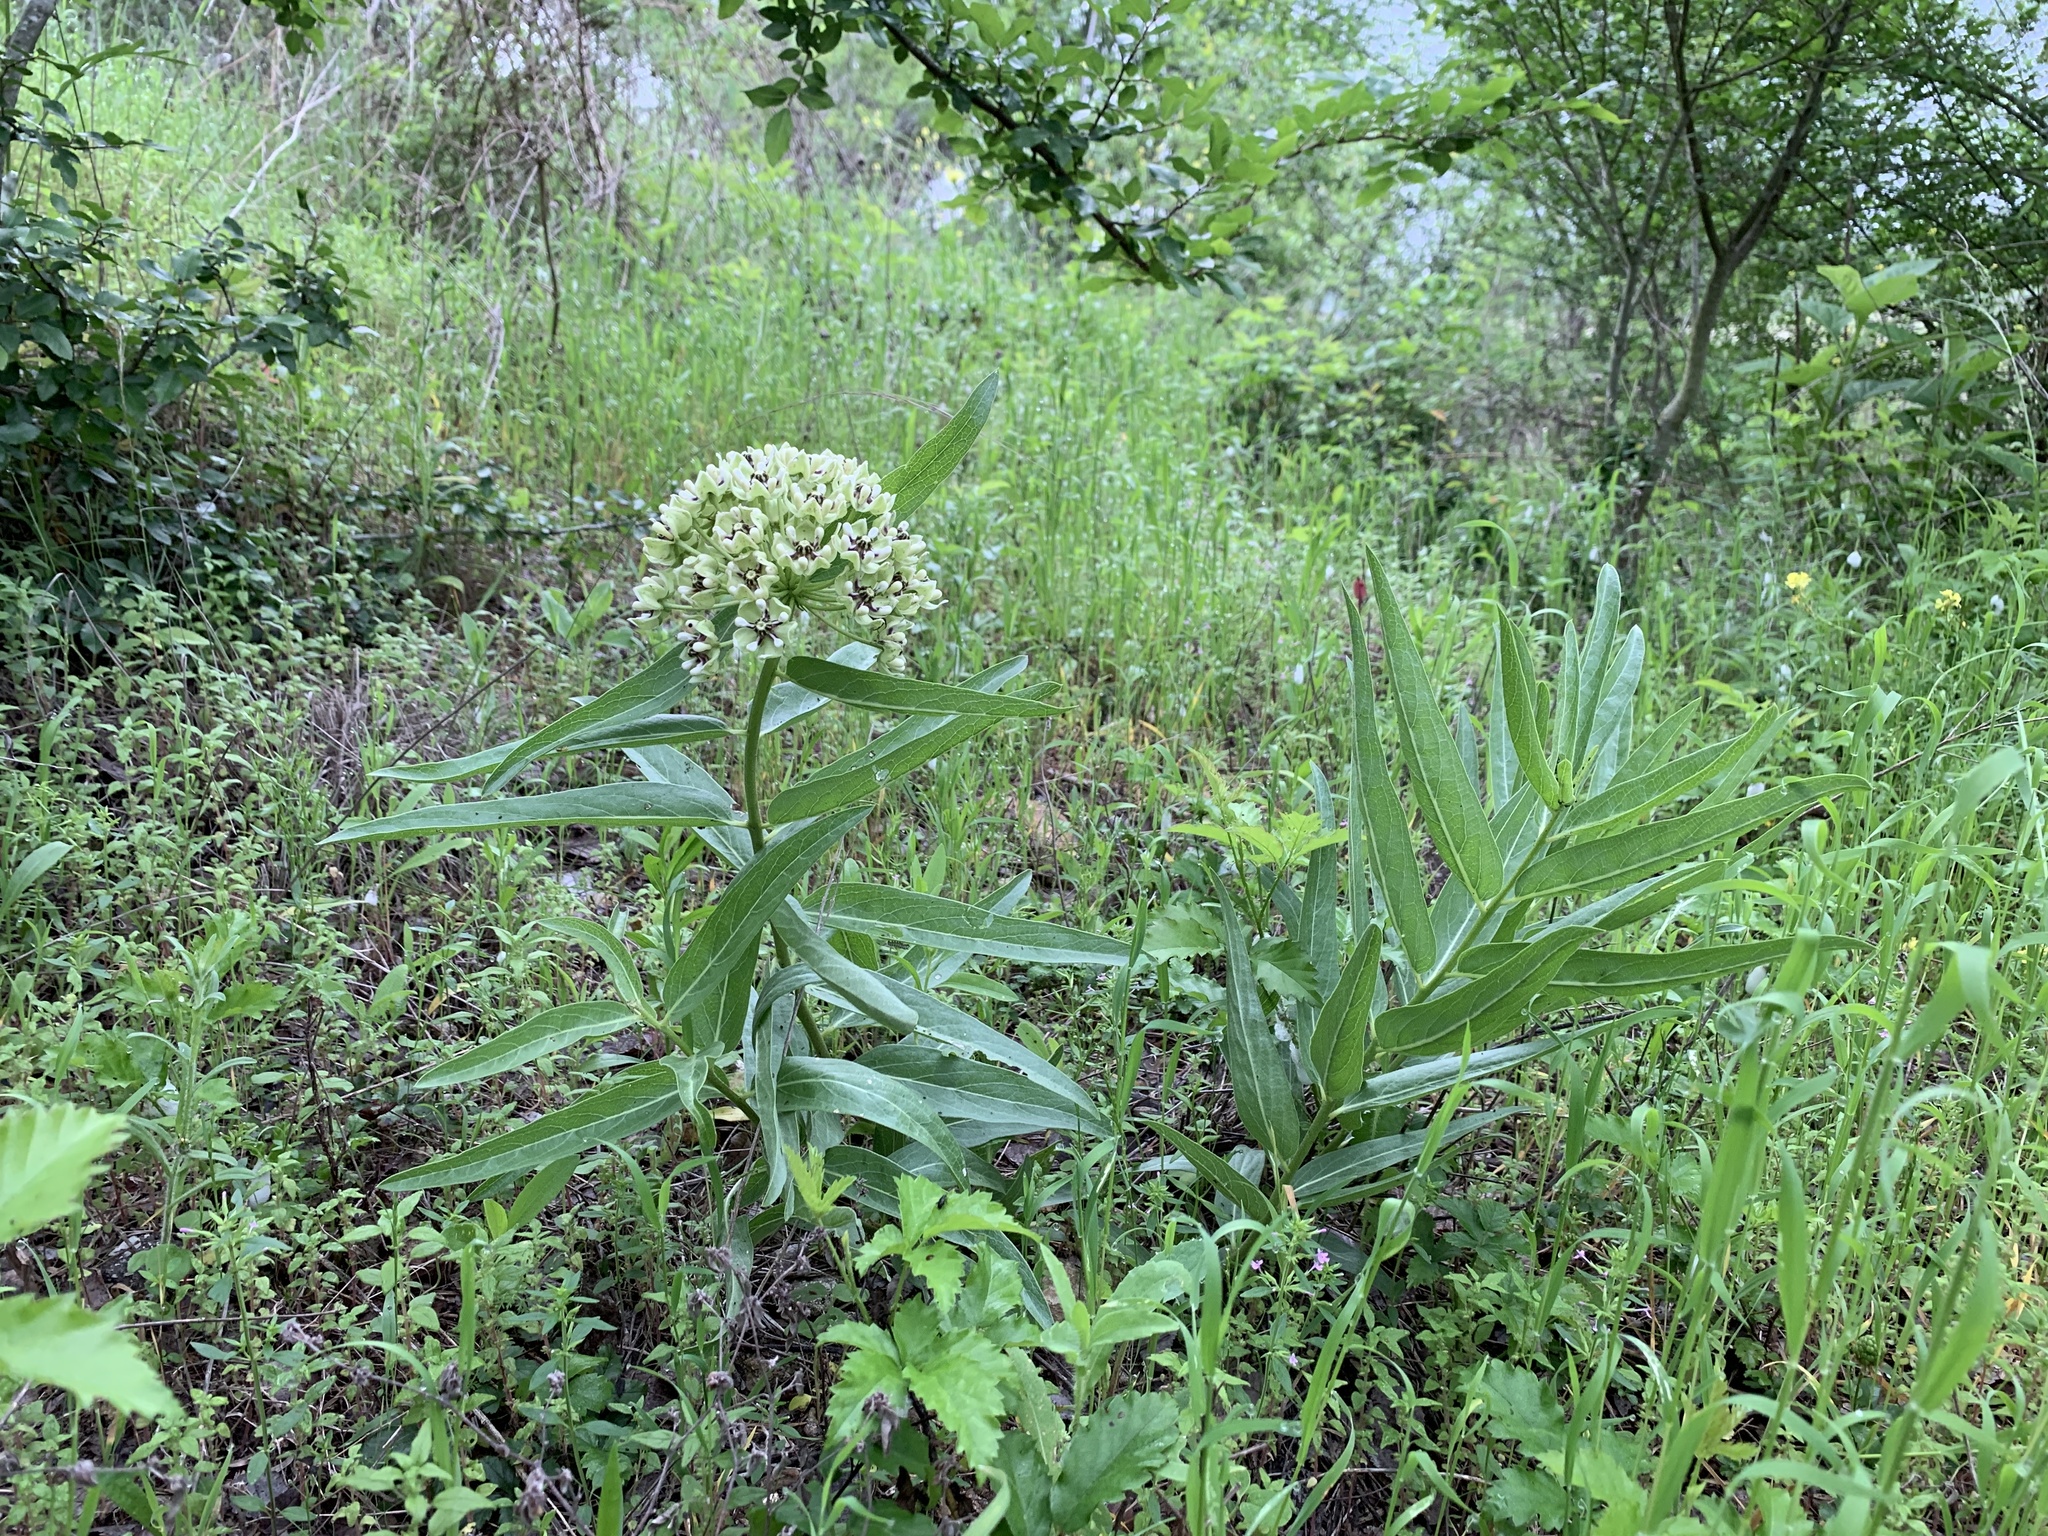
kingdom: Plantae
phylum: Tracheophyta
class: Magnoliopsida
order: Gentianales
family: Apocynaceae
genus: Asclepias
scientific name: Asclepias asperula
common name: Antelope horns
